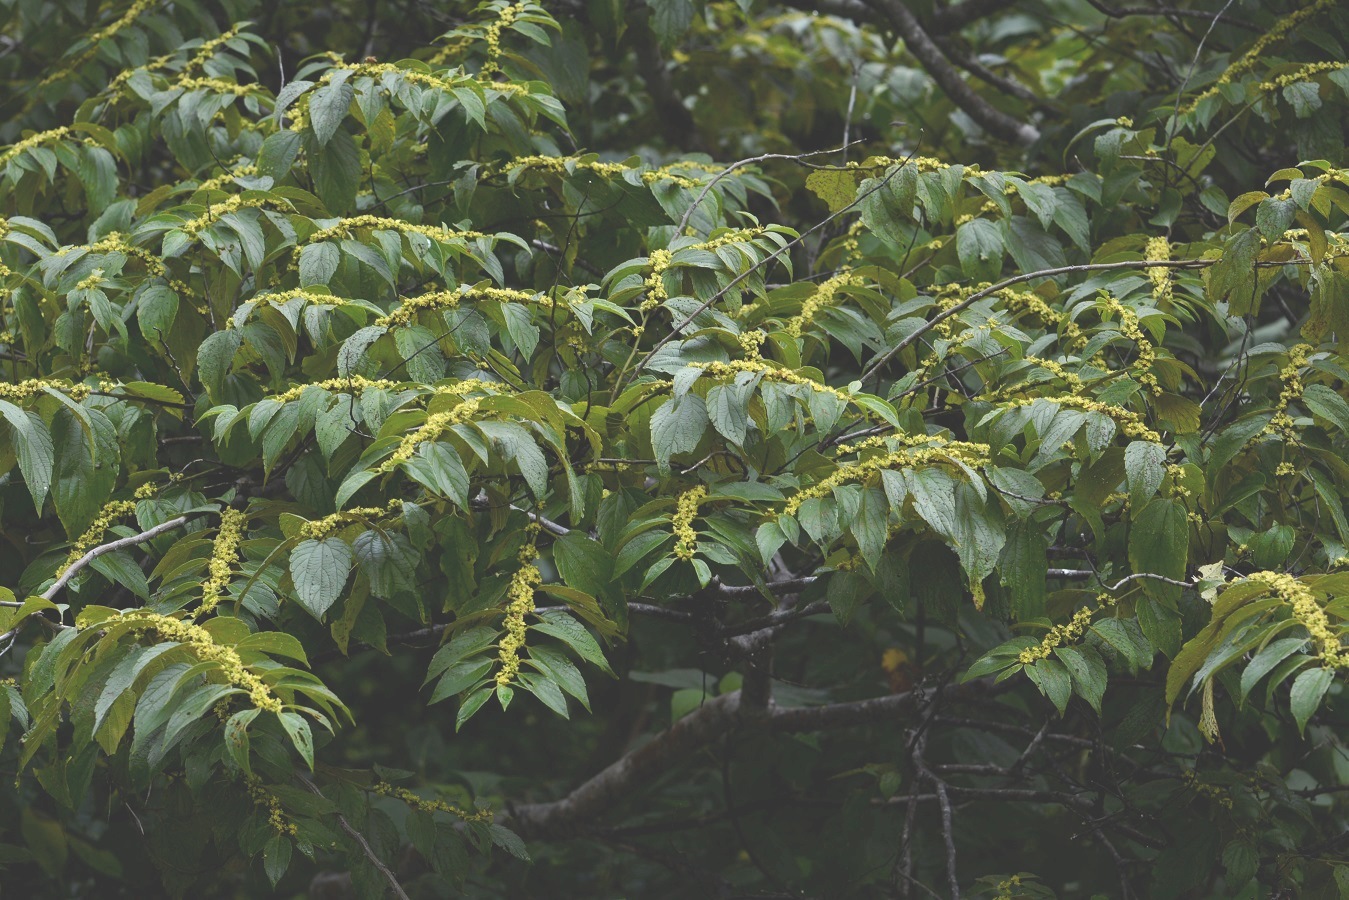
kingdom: Plantae
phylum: Tracheophyta
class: Magnoliopsida
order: Rosales
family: Rhamnaceae
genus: Colubrina
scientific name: Colubrina arborescens
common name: Wild coffee
